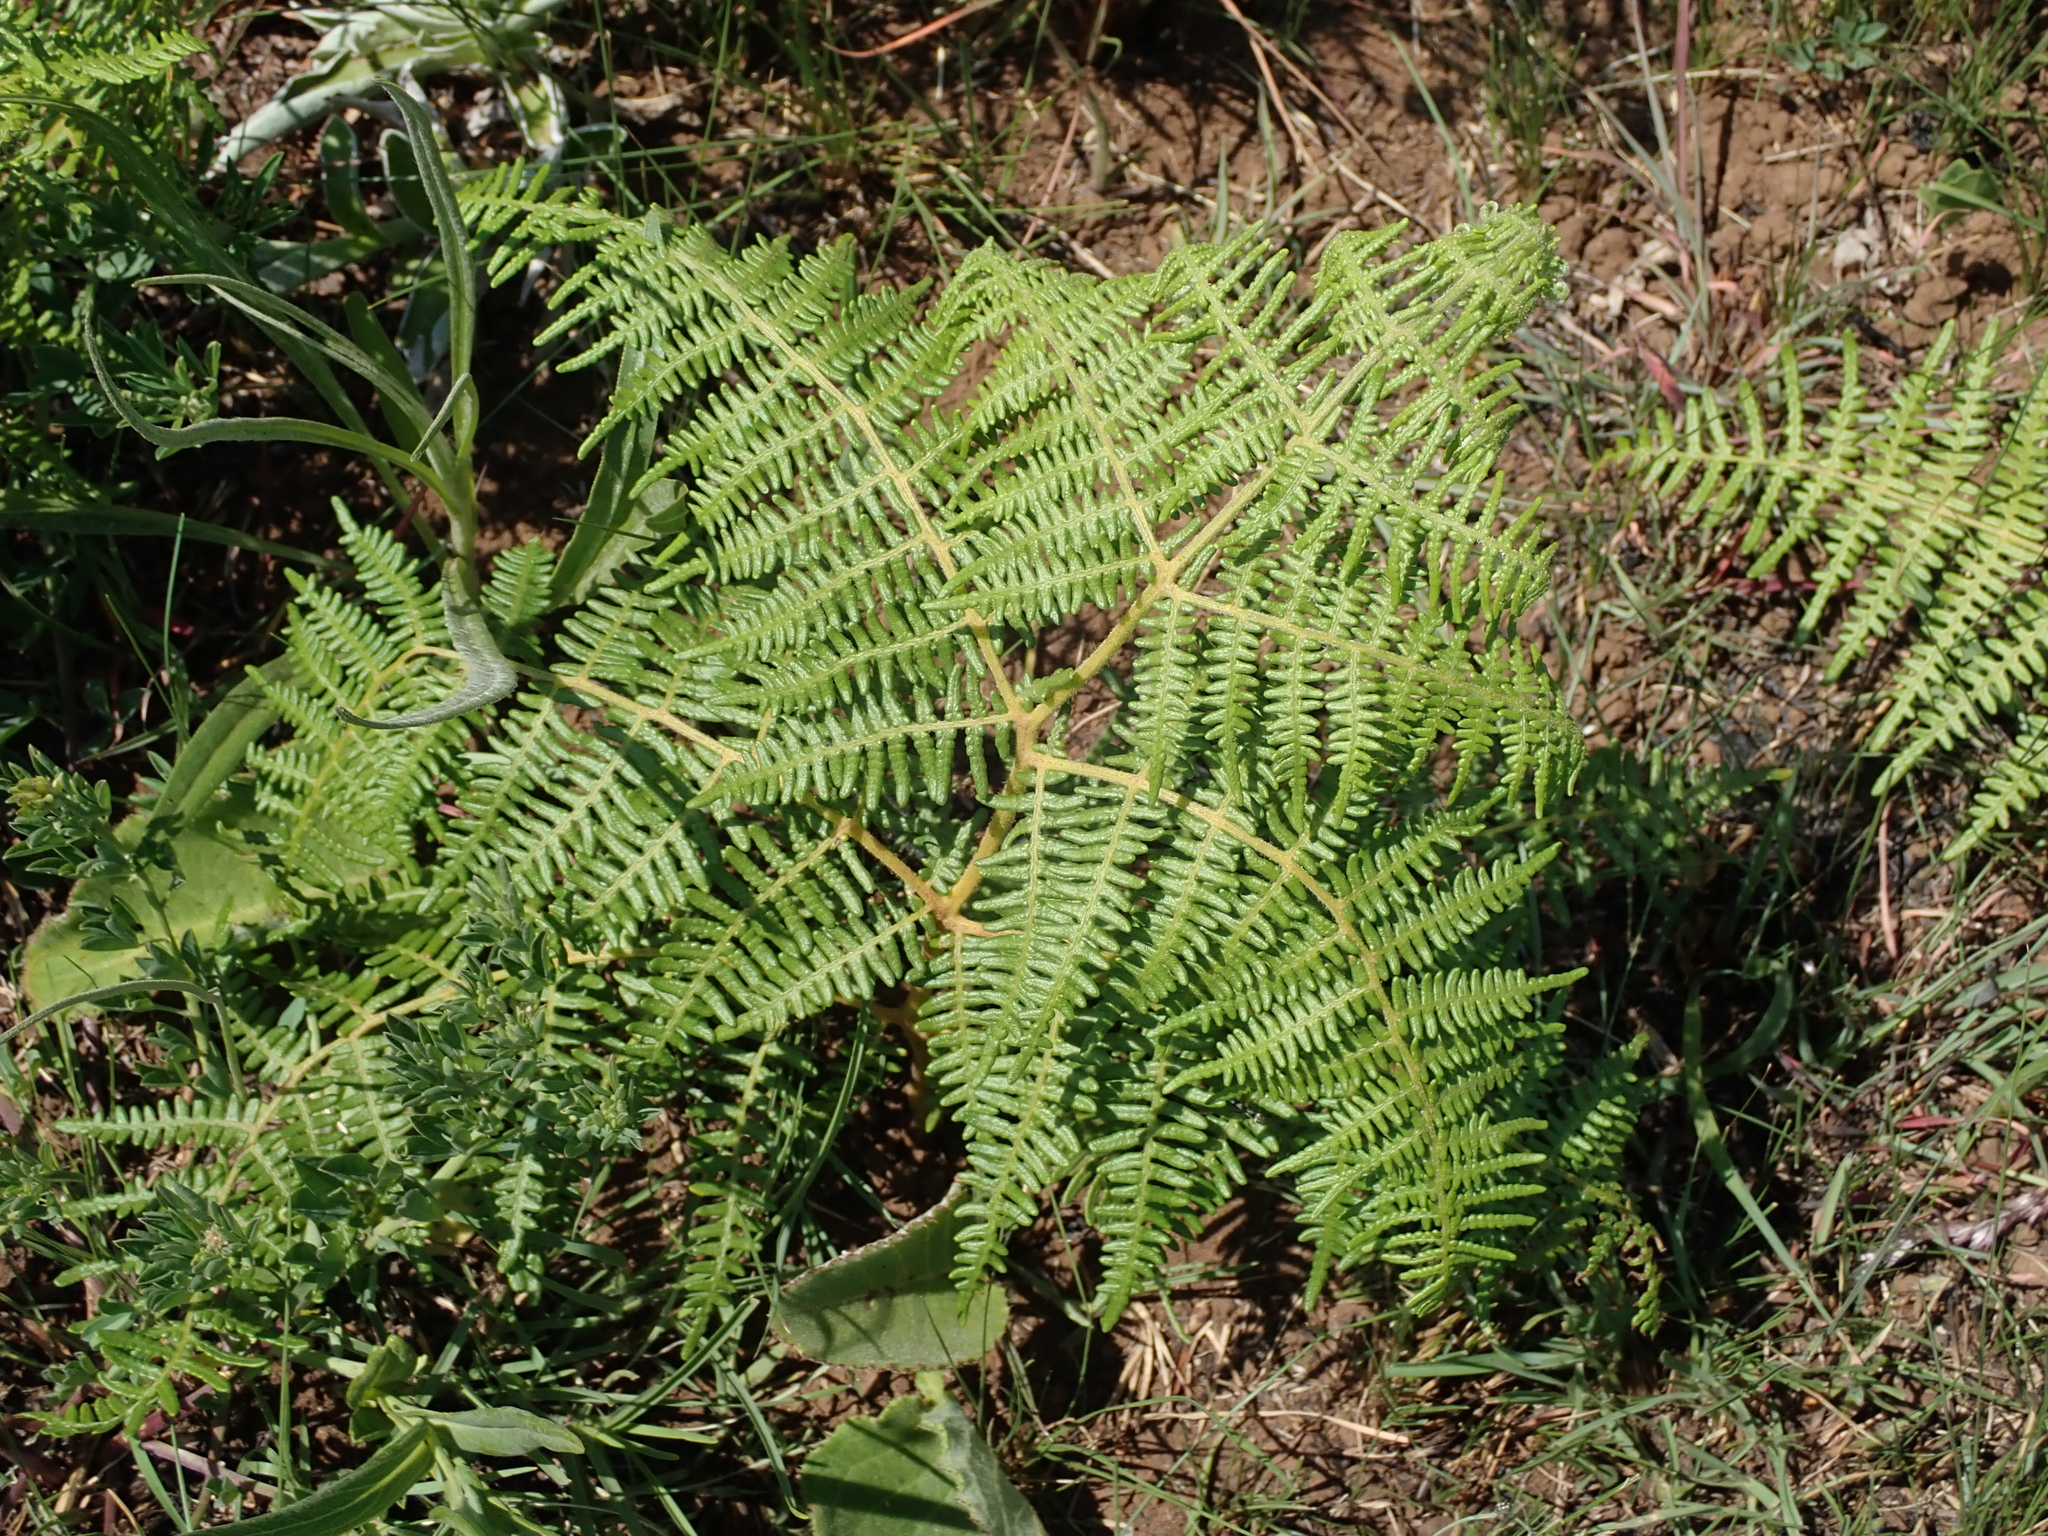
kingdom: Plantae
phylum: Tracheophyta
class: Polypodiopsida
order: Polypodiales
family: Dennstaedtiaceae
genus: Pteridium
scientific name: Pteridium aquilinum
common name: Bracken
